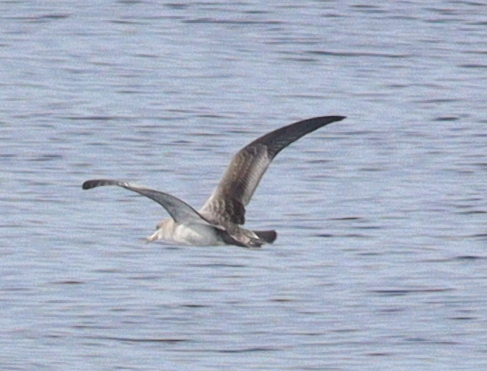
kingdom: Animalia
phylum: Chordata
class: Aves
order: Procellariiformes
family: Procellariidae
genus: Calonectris
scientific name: Calonectris diomedea
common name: Cory's shearwater
